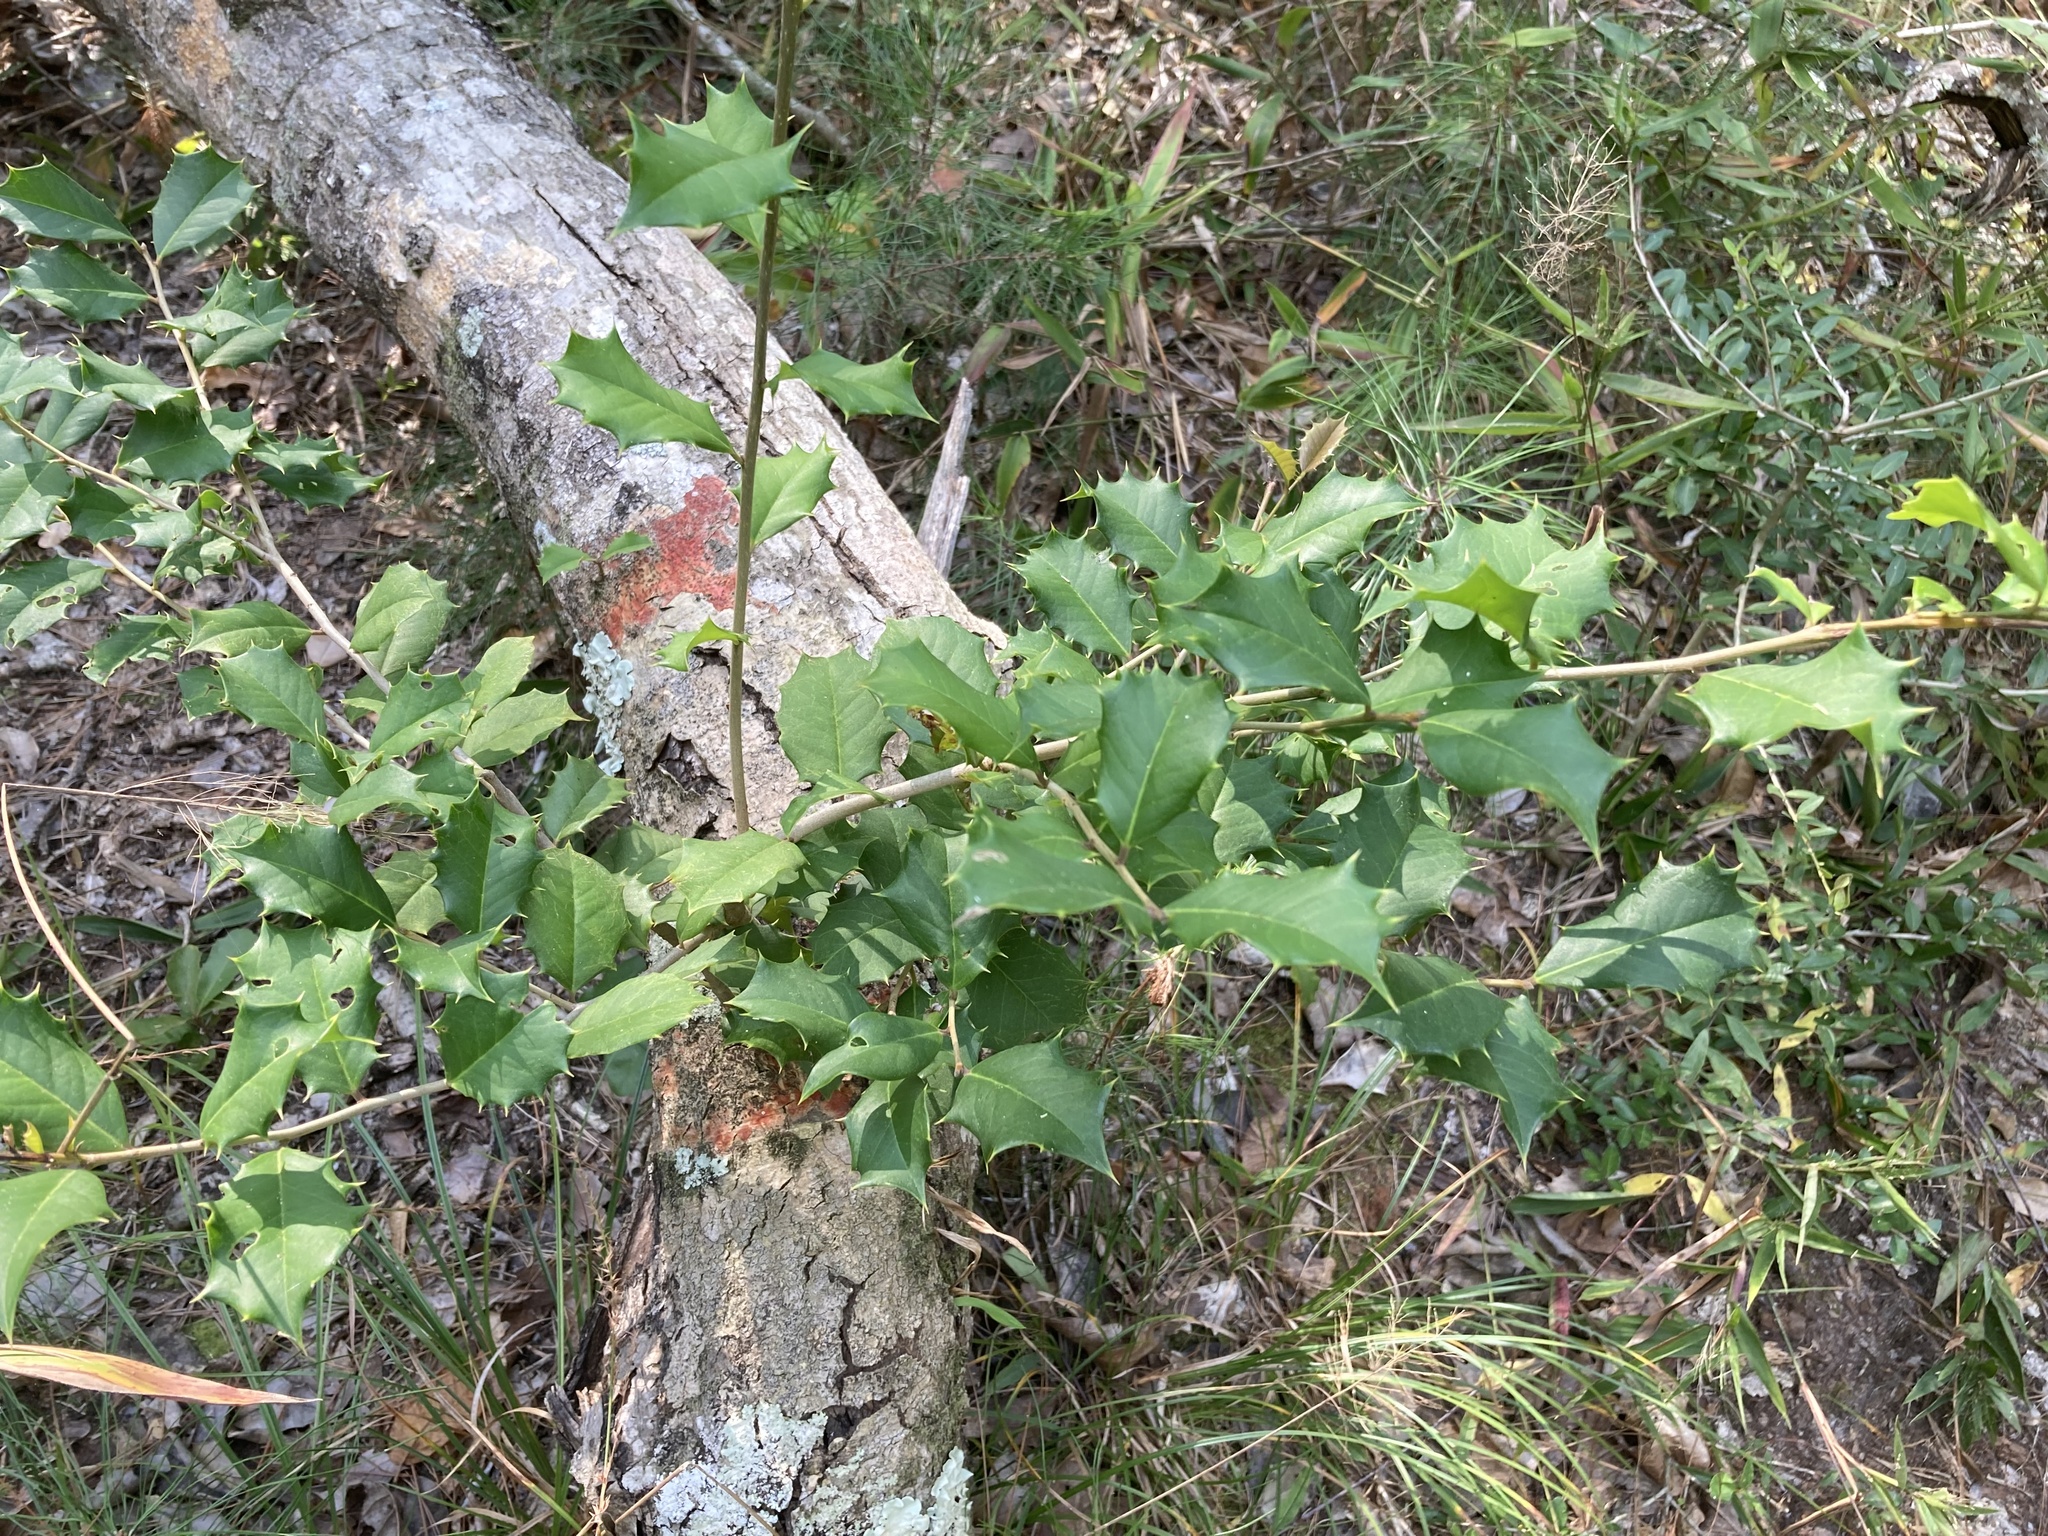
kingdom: Plantae
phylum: Tracheophyta
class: Magnoliopsida
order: Aquifoliales
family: Aquifoliaceae
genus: Ilex
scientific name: Ilex opaca
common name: American holly
